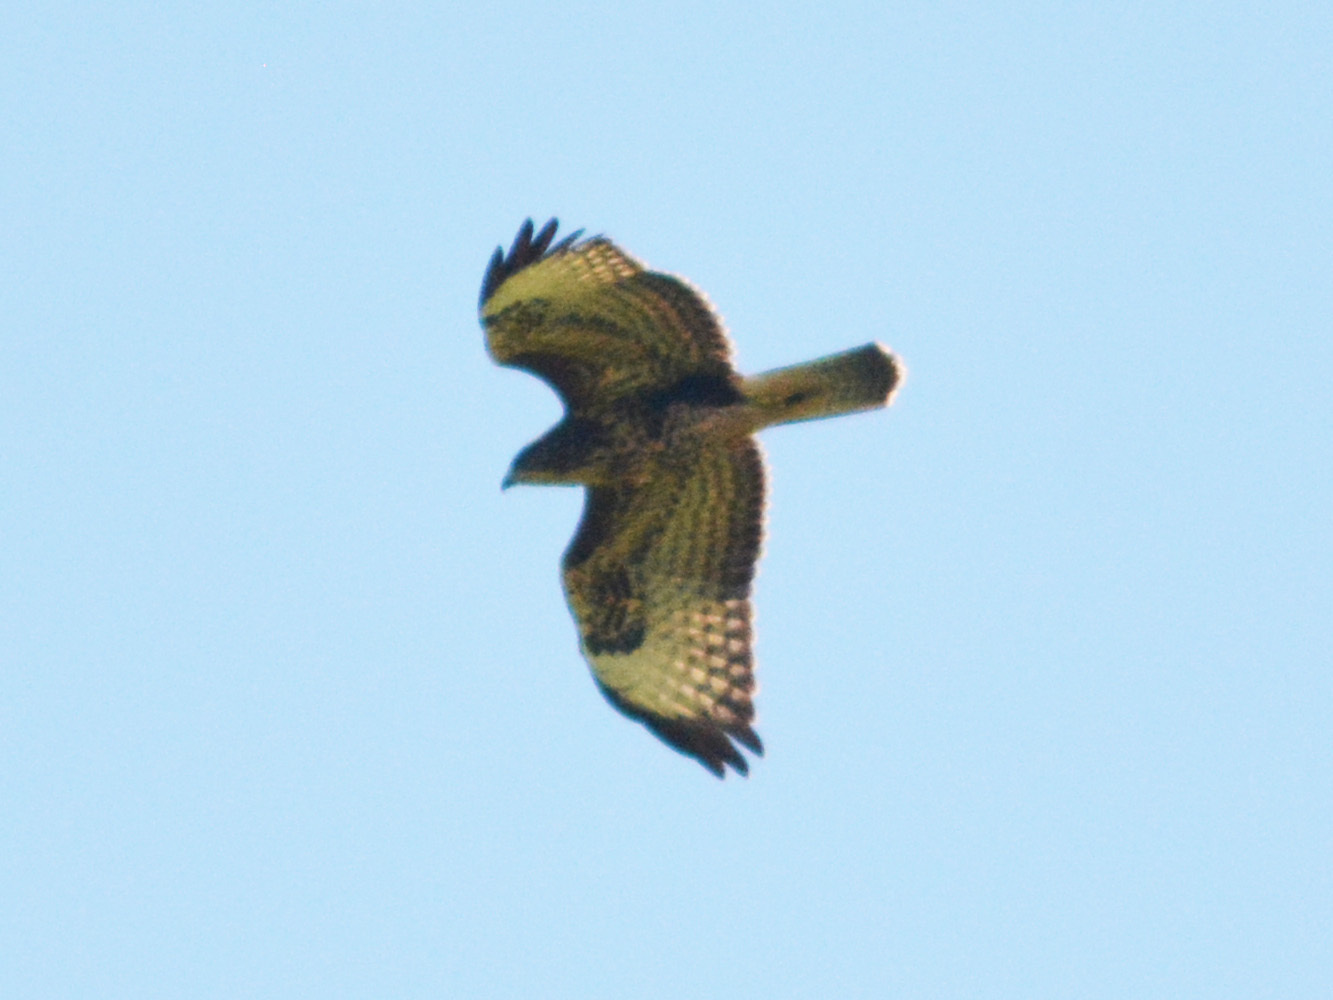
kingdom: Animalia
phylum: Chordata
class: Aves
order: Accipitriformes
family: Accipitridae
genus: Buteo
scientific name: Buteo buteo
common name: Common buzzard
